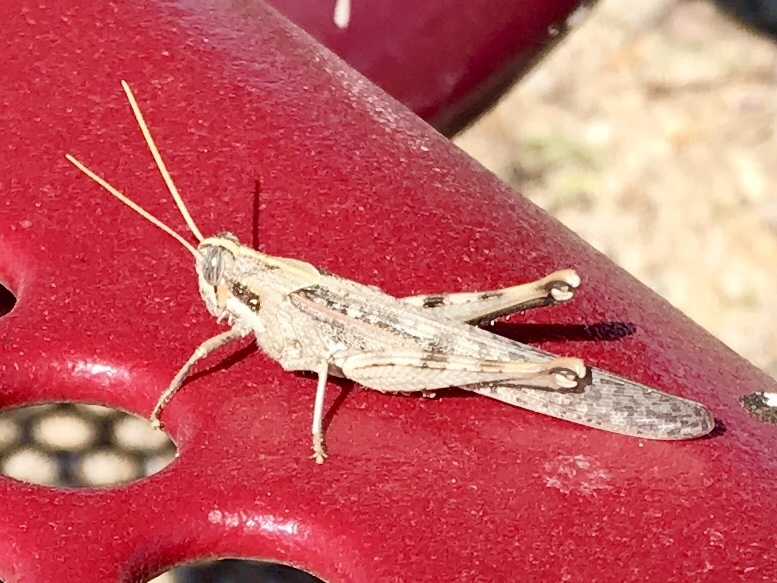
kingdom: Animalia
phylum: Arthropoda
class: Insecta
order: Orthoptera
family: Acrididae
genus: Schistocerca
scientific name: Schistocerca nitens
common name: Vagrant grasshopper
